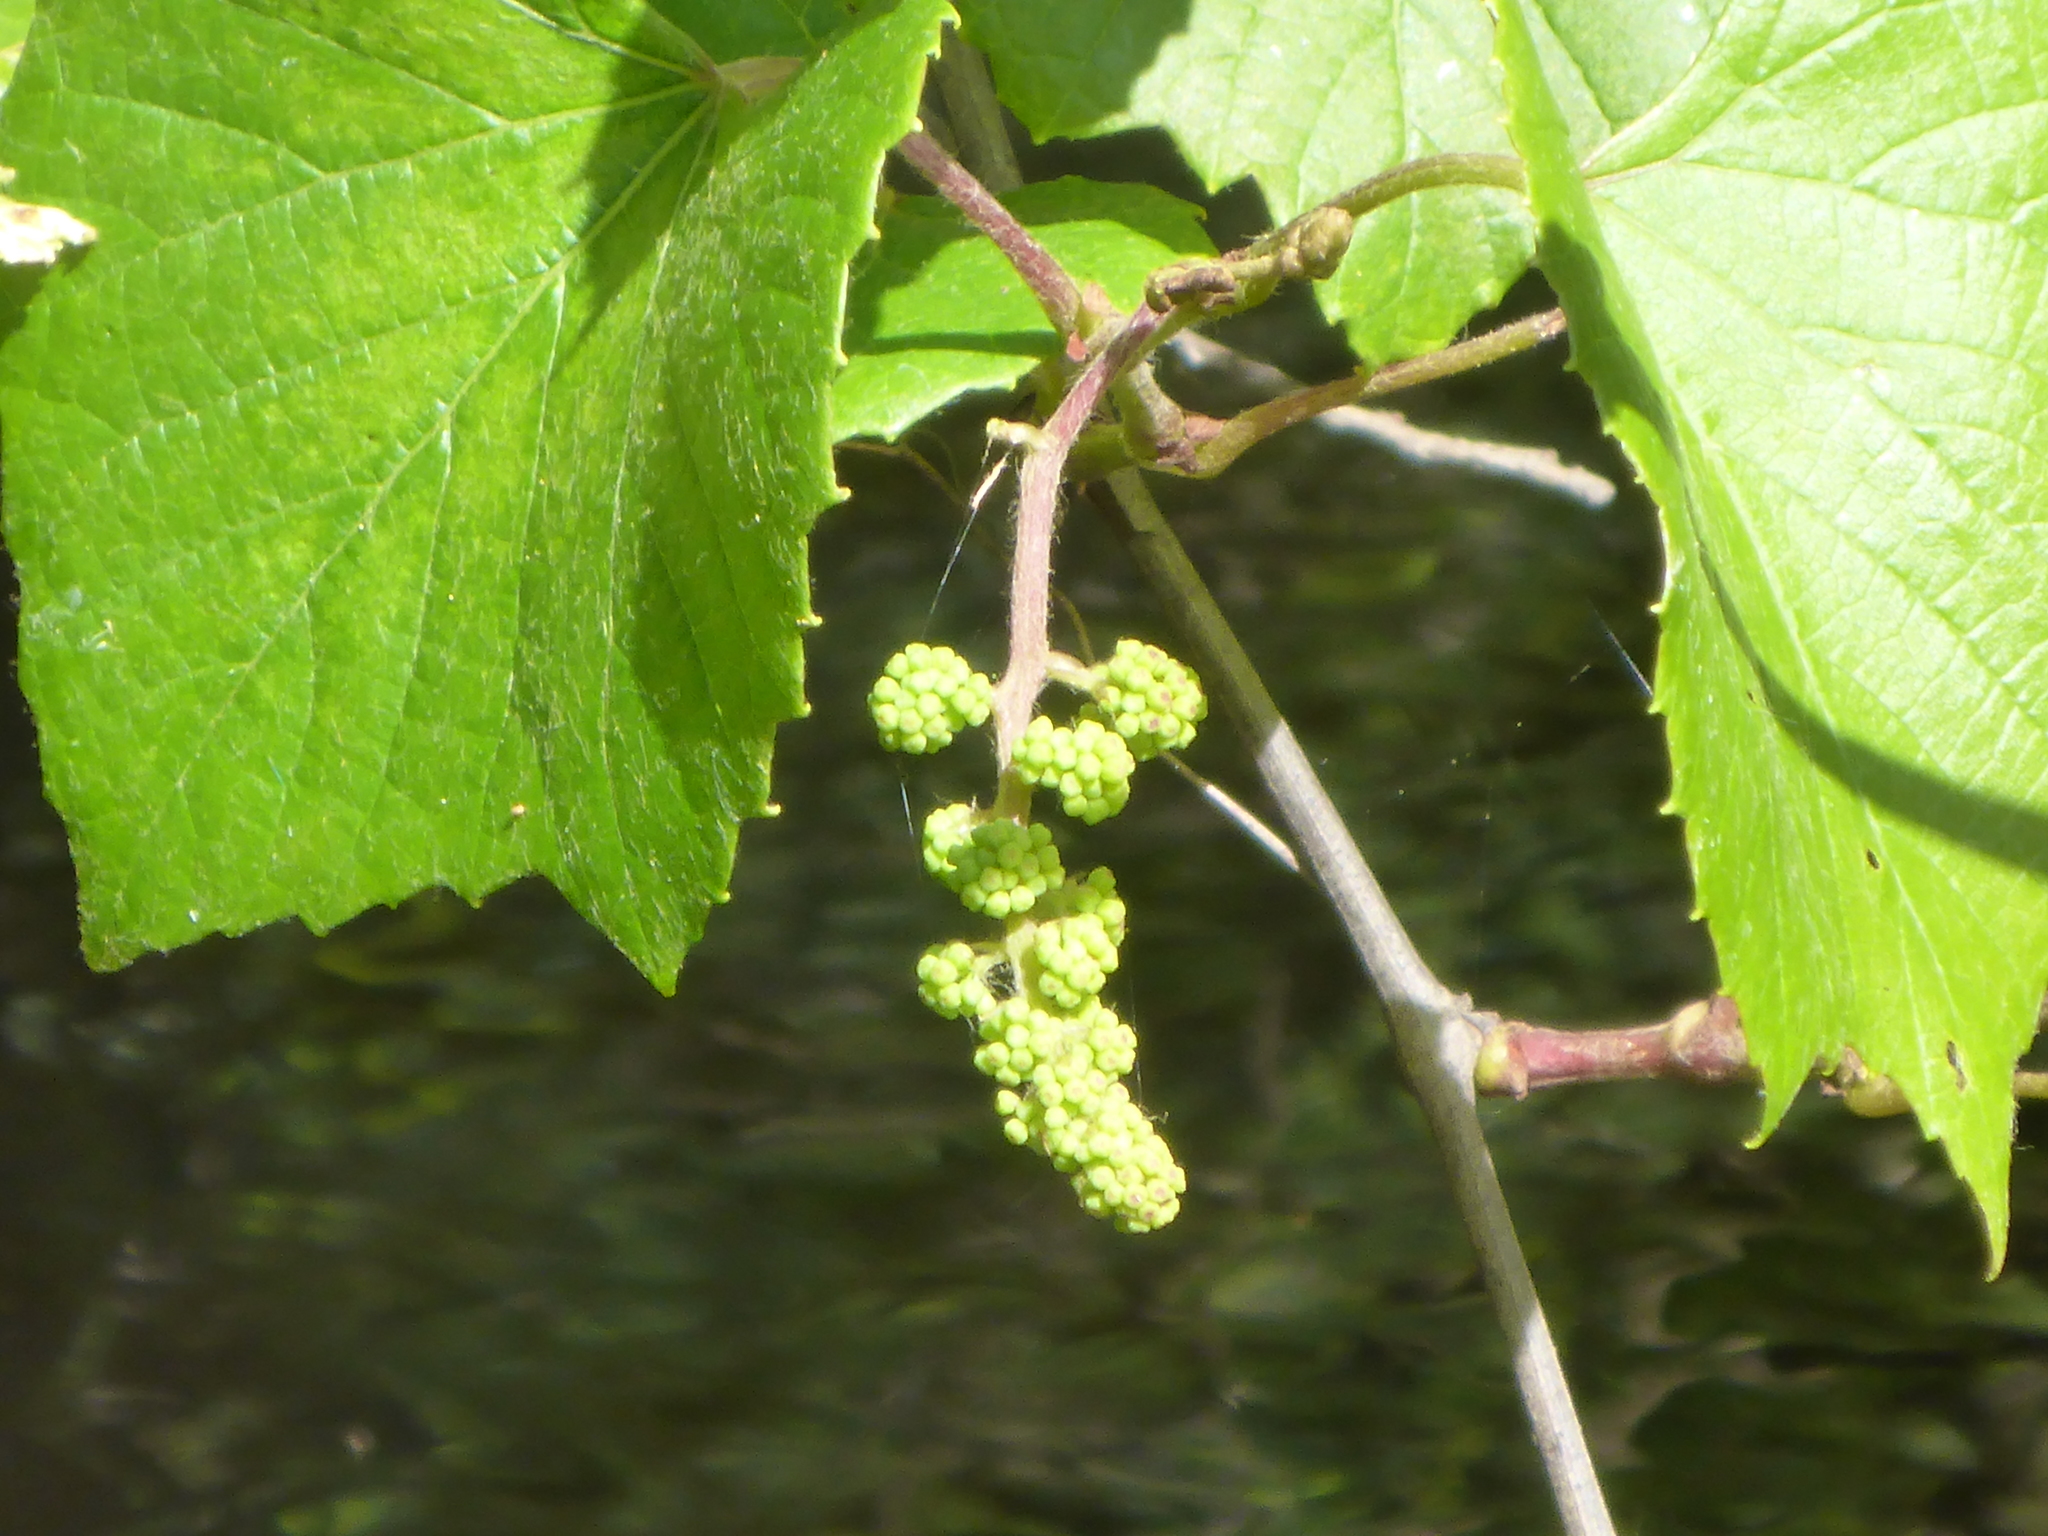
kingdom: Plantae
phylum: Tracheophyta
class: Magnoliopsida
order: Vitales
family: Vitaceae
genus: Vitis
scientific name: Vitis rotundifolia
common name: Muscadine grape
